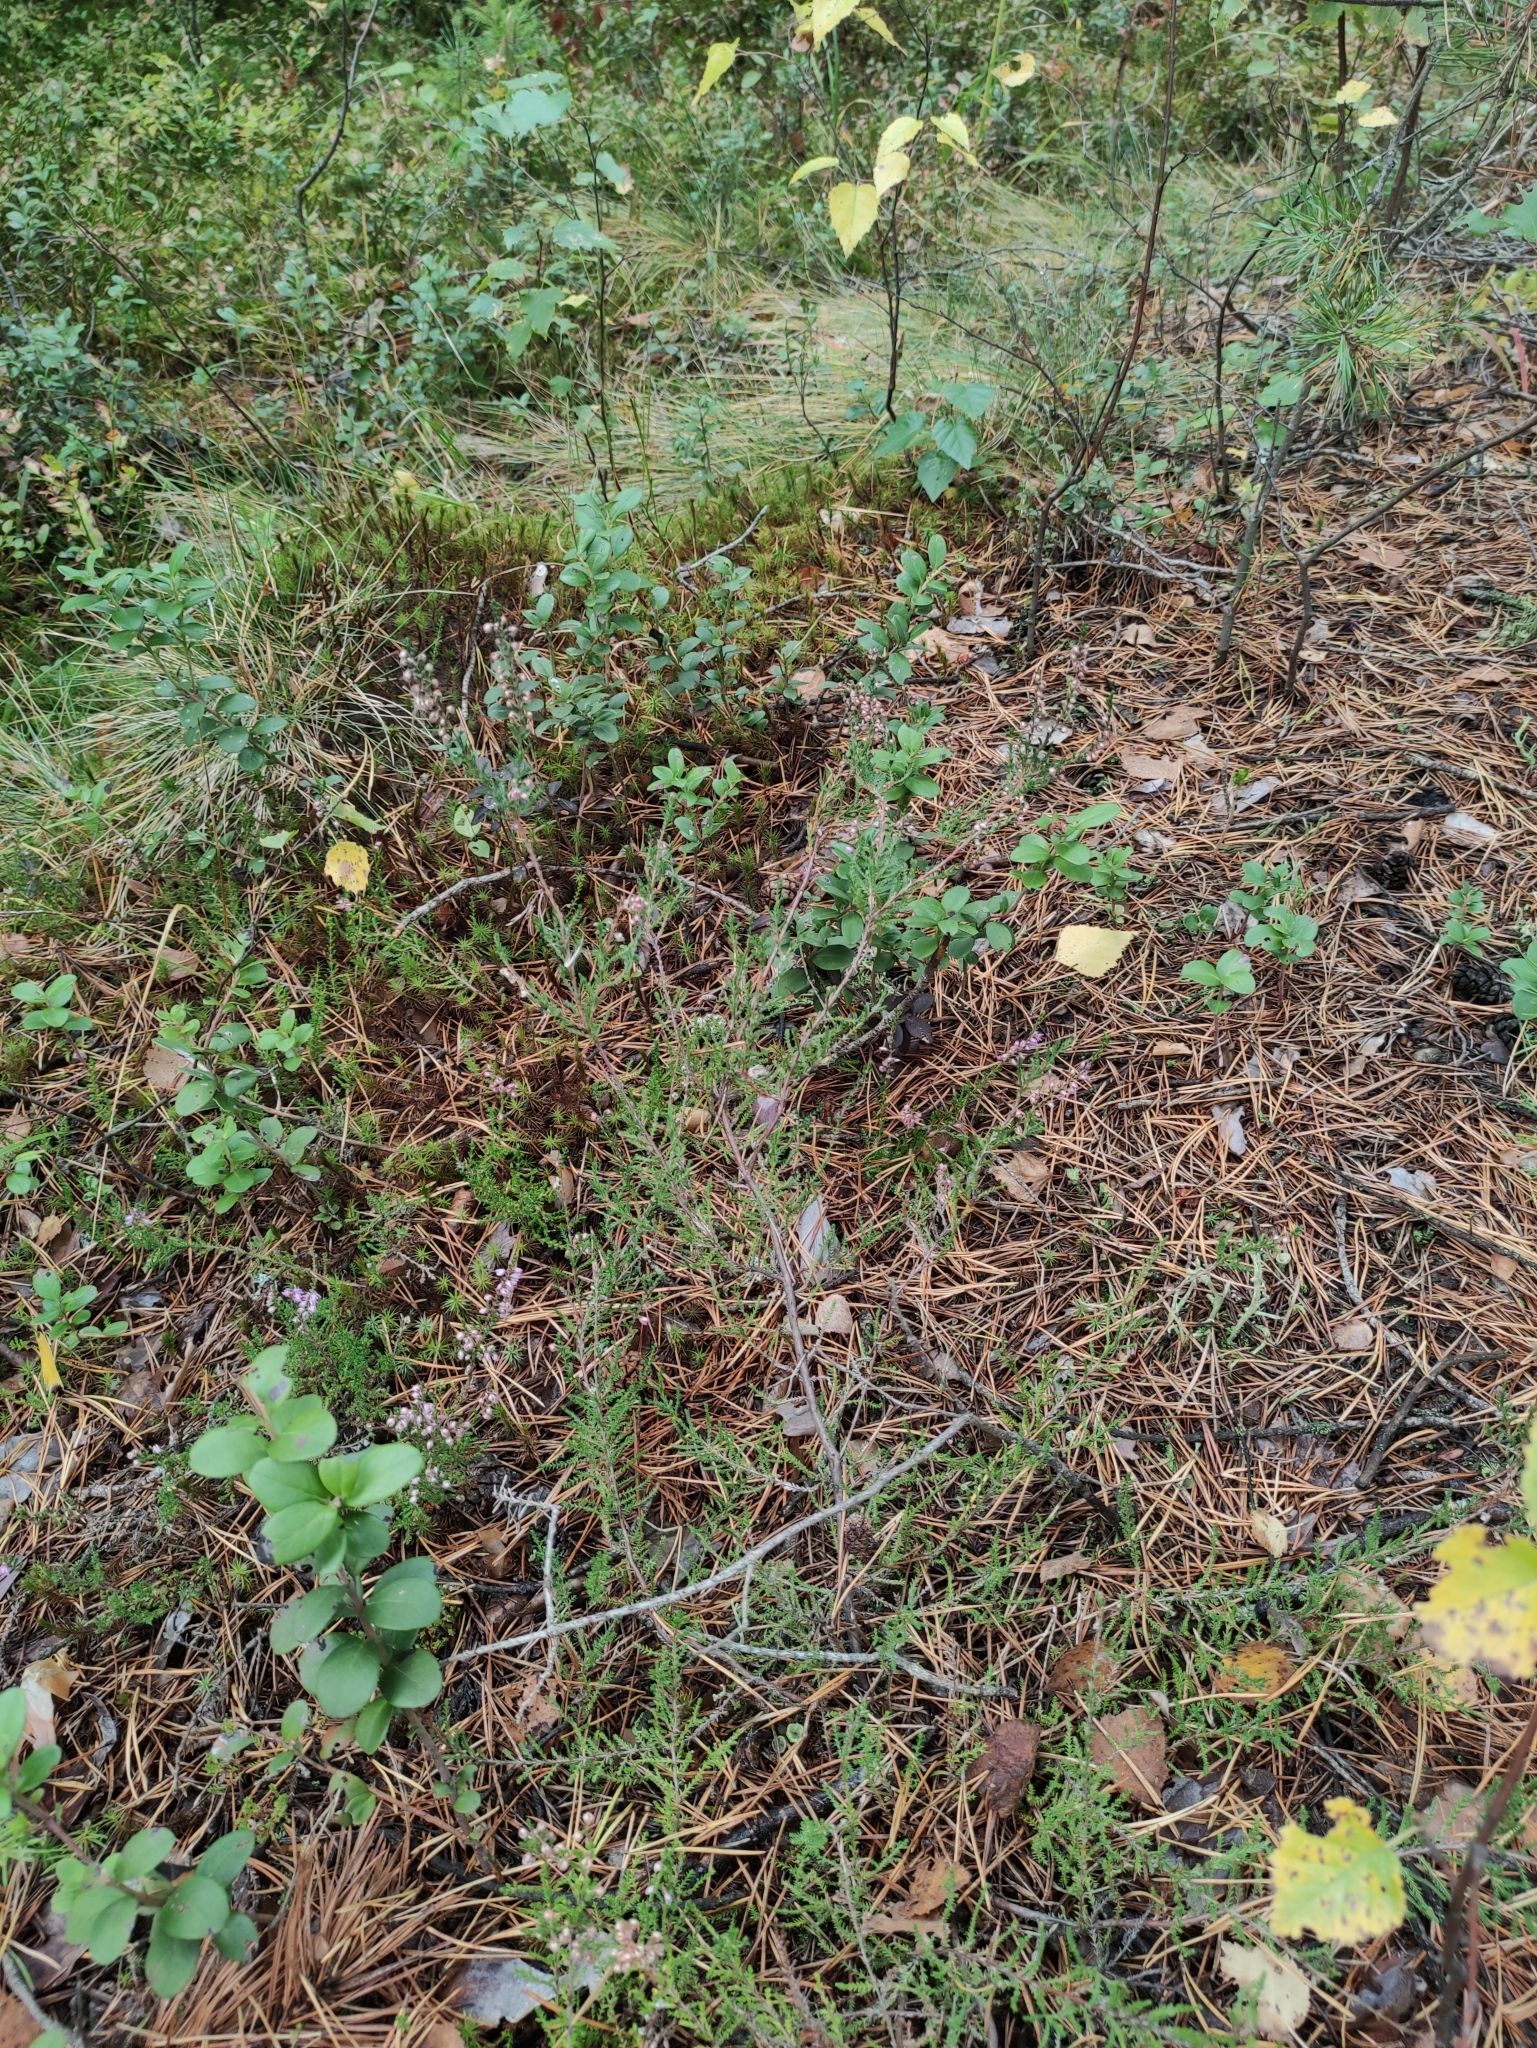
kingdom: Plantae
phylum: Tracheophyta
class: Magnoliopsida
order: Ericales
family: Ericaceae
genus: Calluna
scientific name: Calluna vulgaris
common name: Heather
